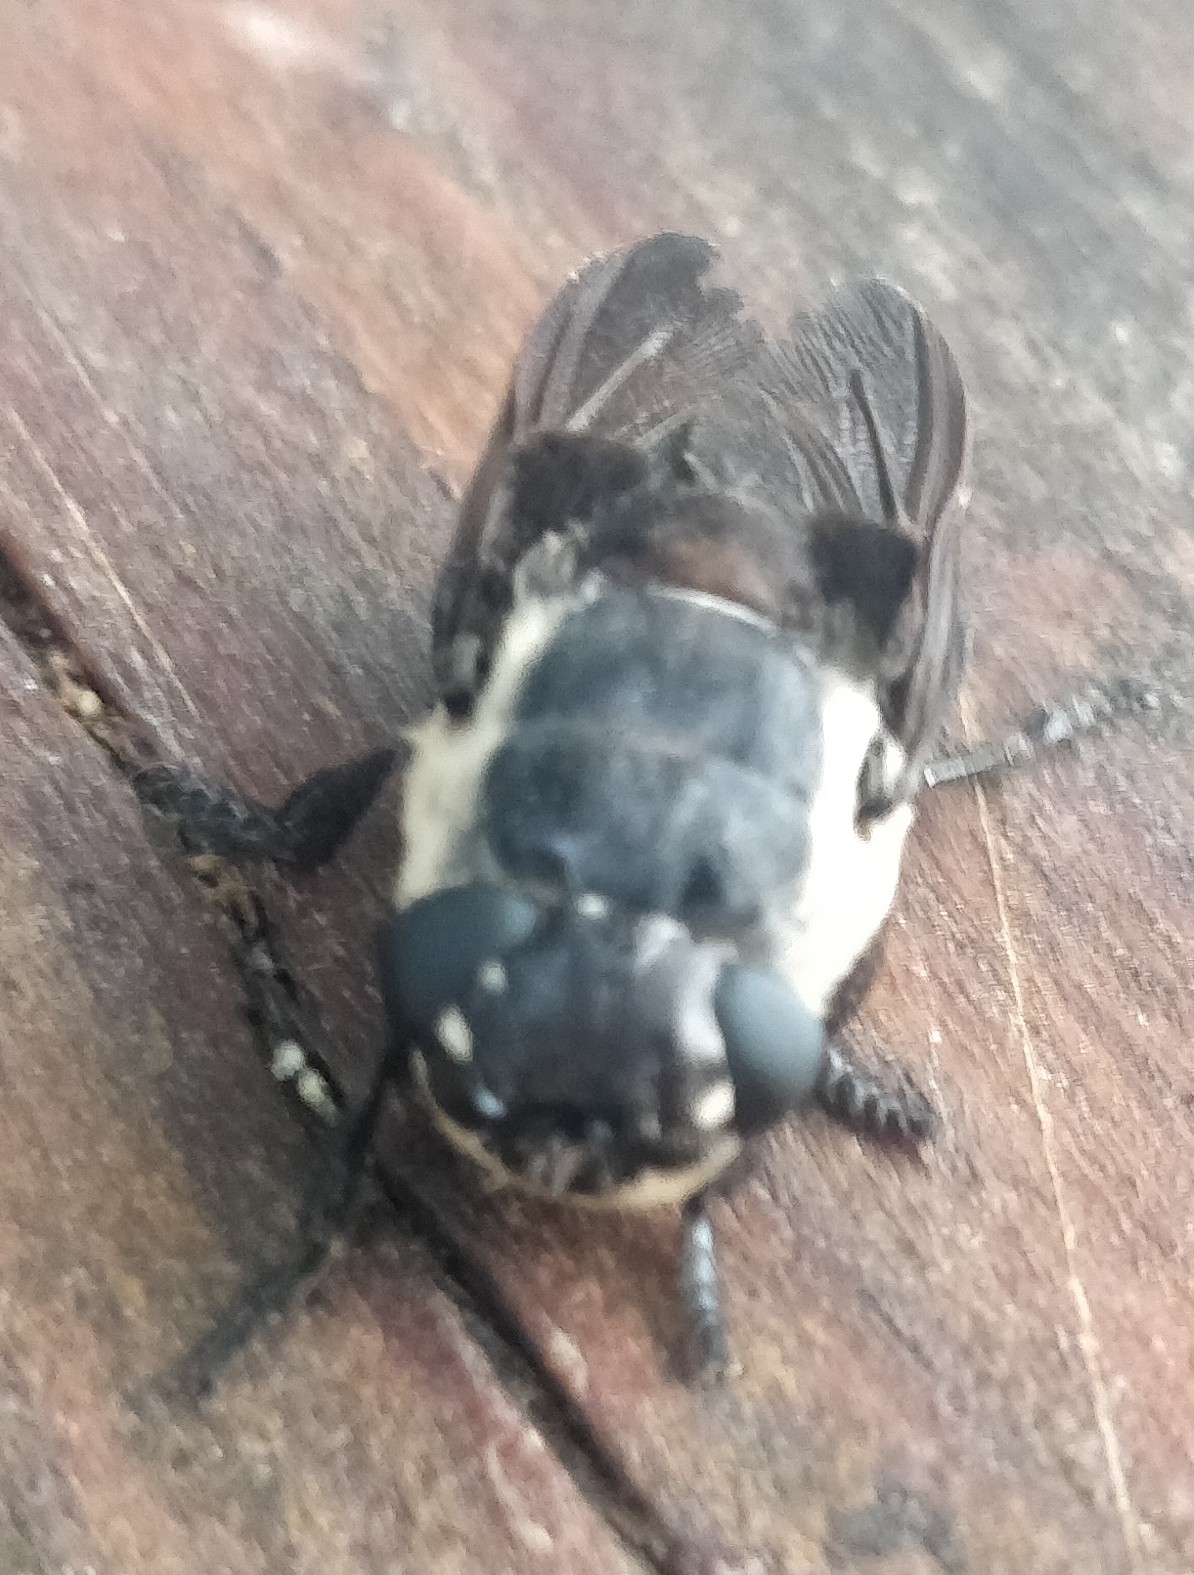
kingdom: Animalia
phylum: Arthropoda
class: Insecta
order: Diptera
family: Oestridae
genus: Cuterebra
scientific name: Cuterebra fontinella
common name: Mouse bot fly
